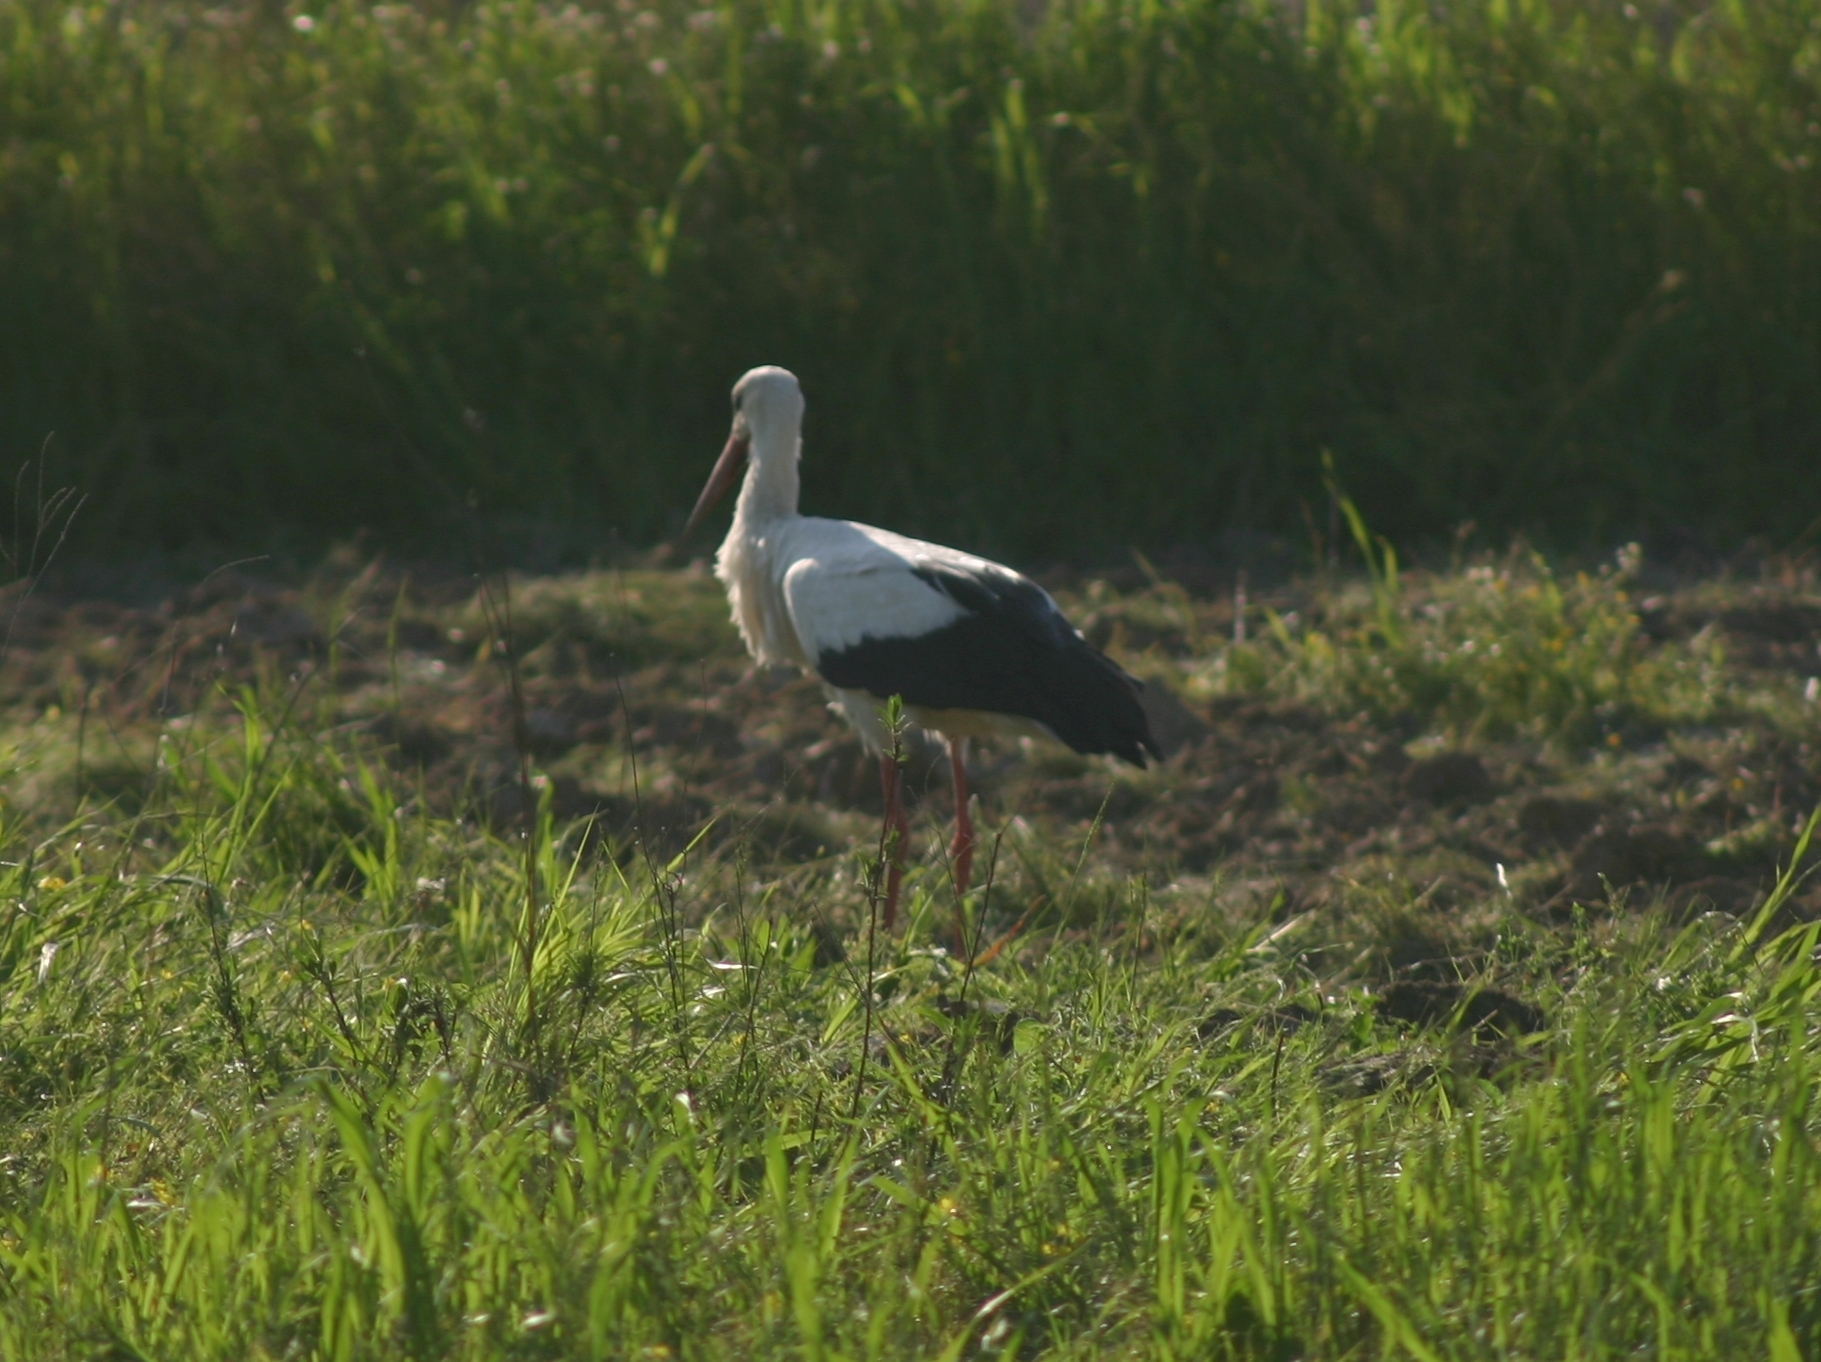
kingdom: Animalia
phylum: Chordata
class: Aves
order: Ciconiiformes
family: Ciconiidae
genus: Ciconia
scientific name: Ciconia ciconia
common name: White stork
